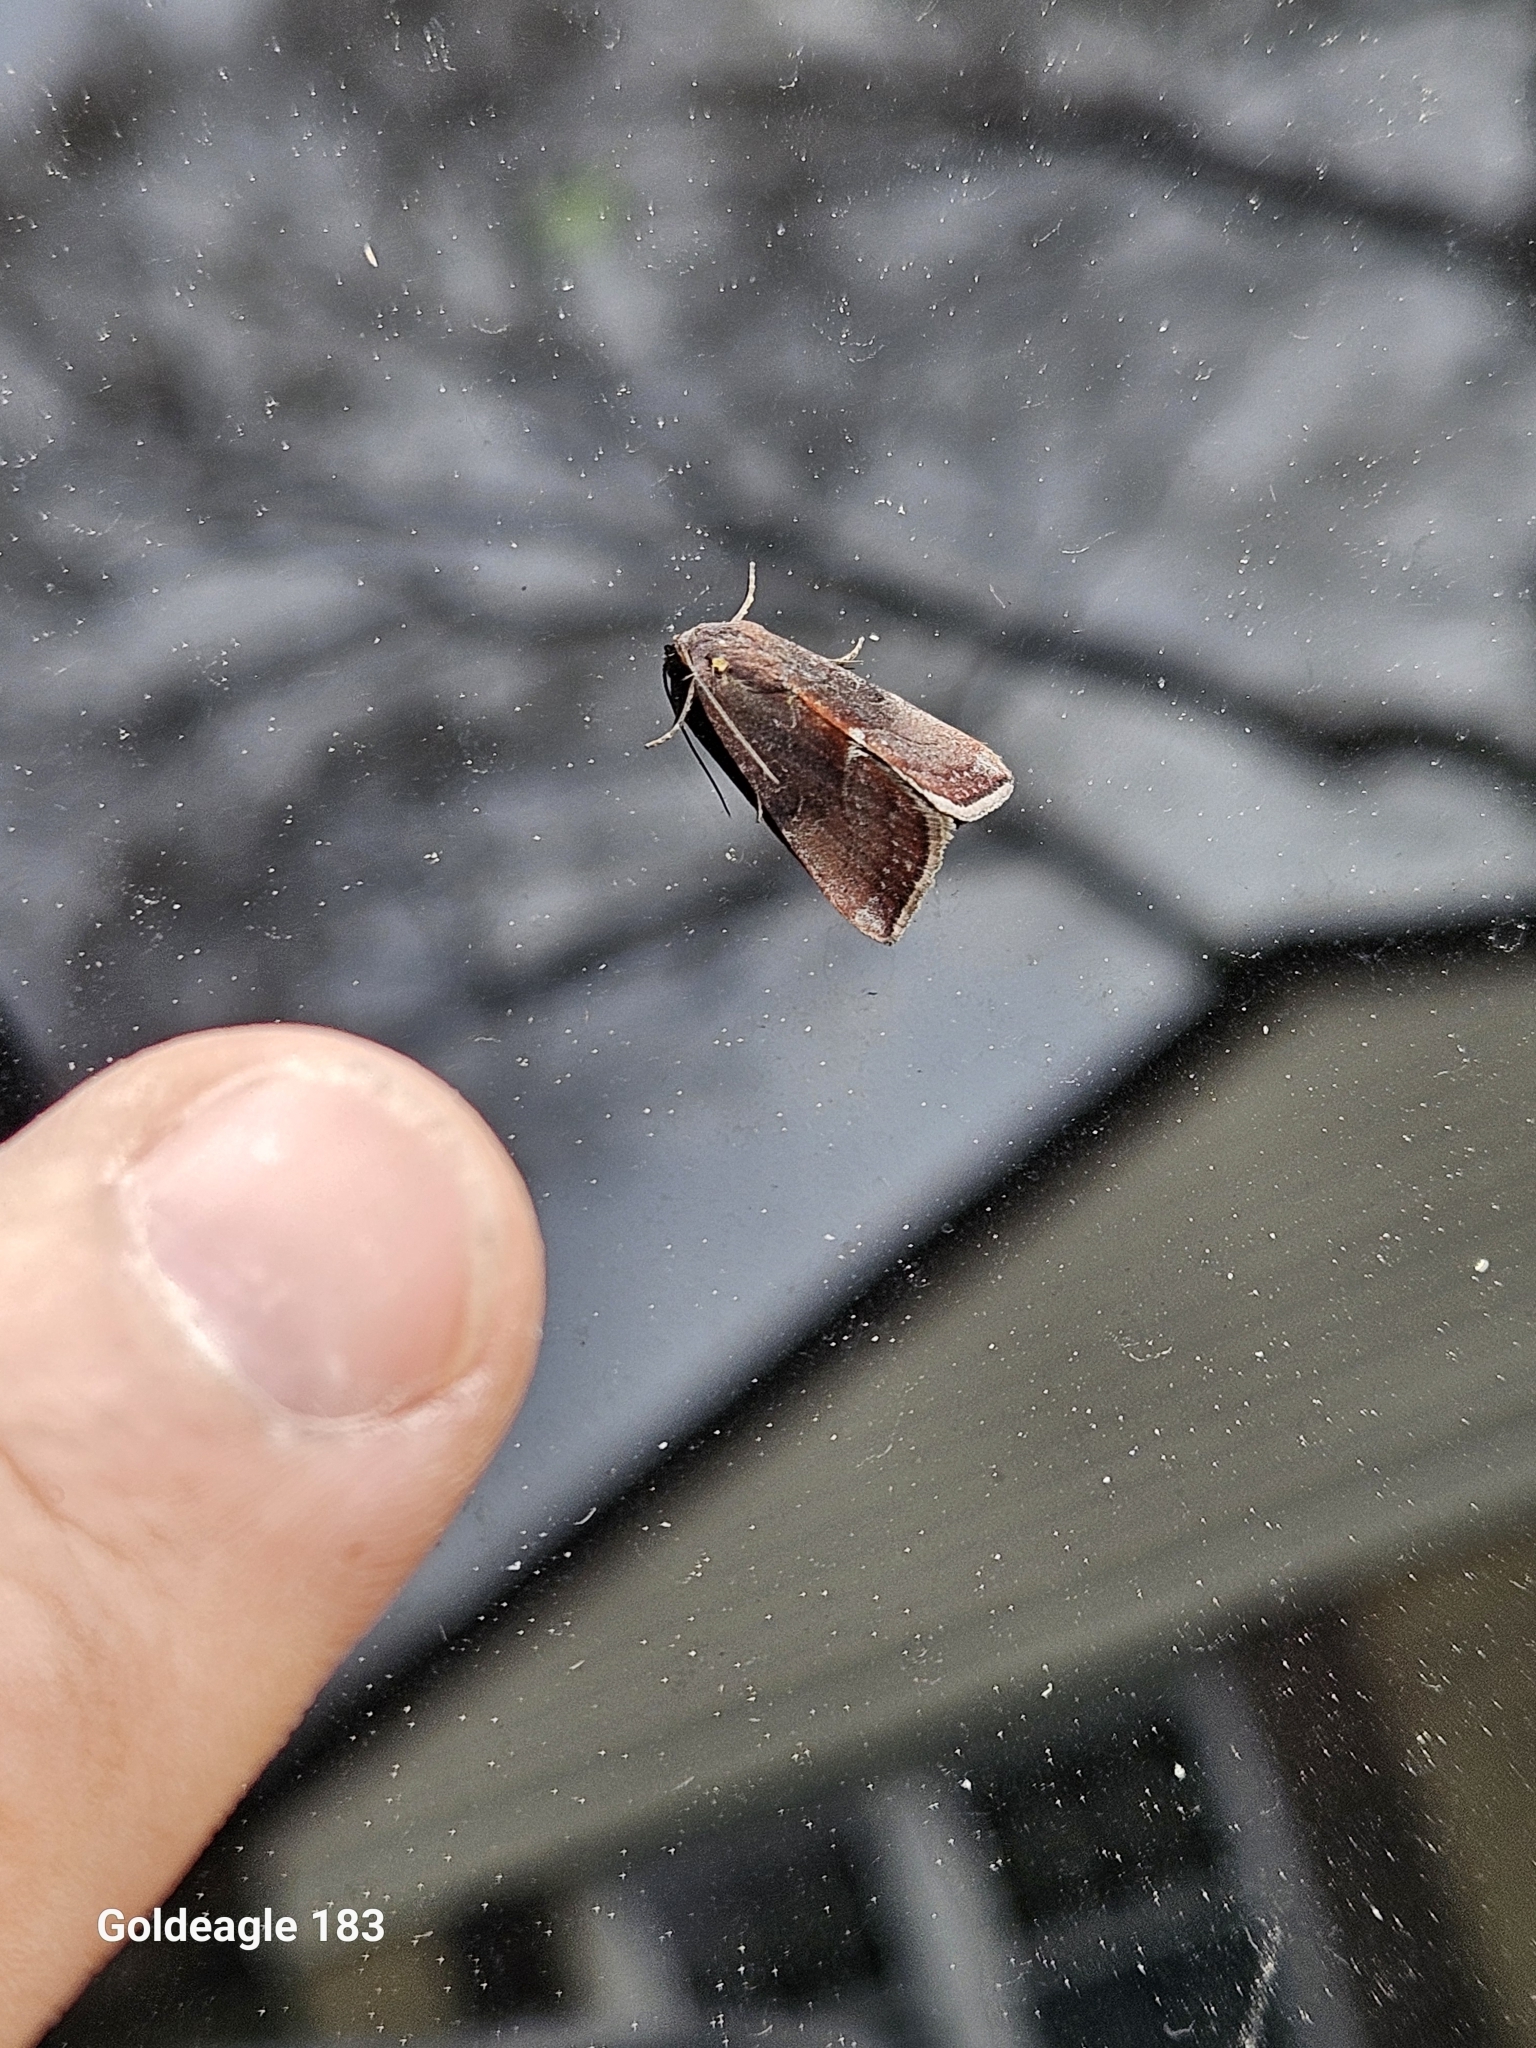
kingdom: Animalia
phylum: Arthropoda
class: Insecta
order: Lepidoptera
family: Noctuidae
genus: Galgula
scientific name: Galgula partita
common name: Wedgeling
